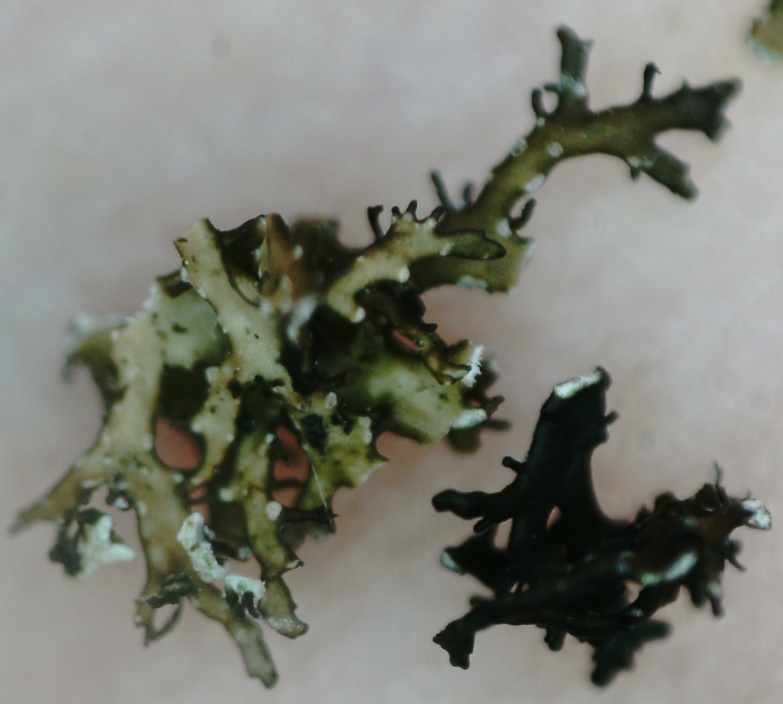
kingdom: Fungi
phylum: Ascomycota
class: Lecanoromycetes
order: Lecanorales
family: Parmeliaceae
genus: Cetraria
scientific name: Cetraria odontella
